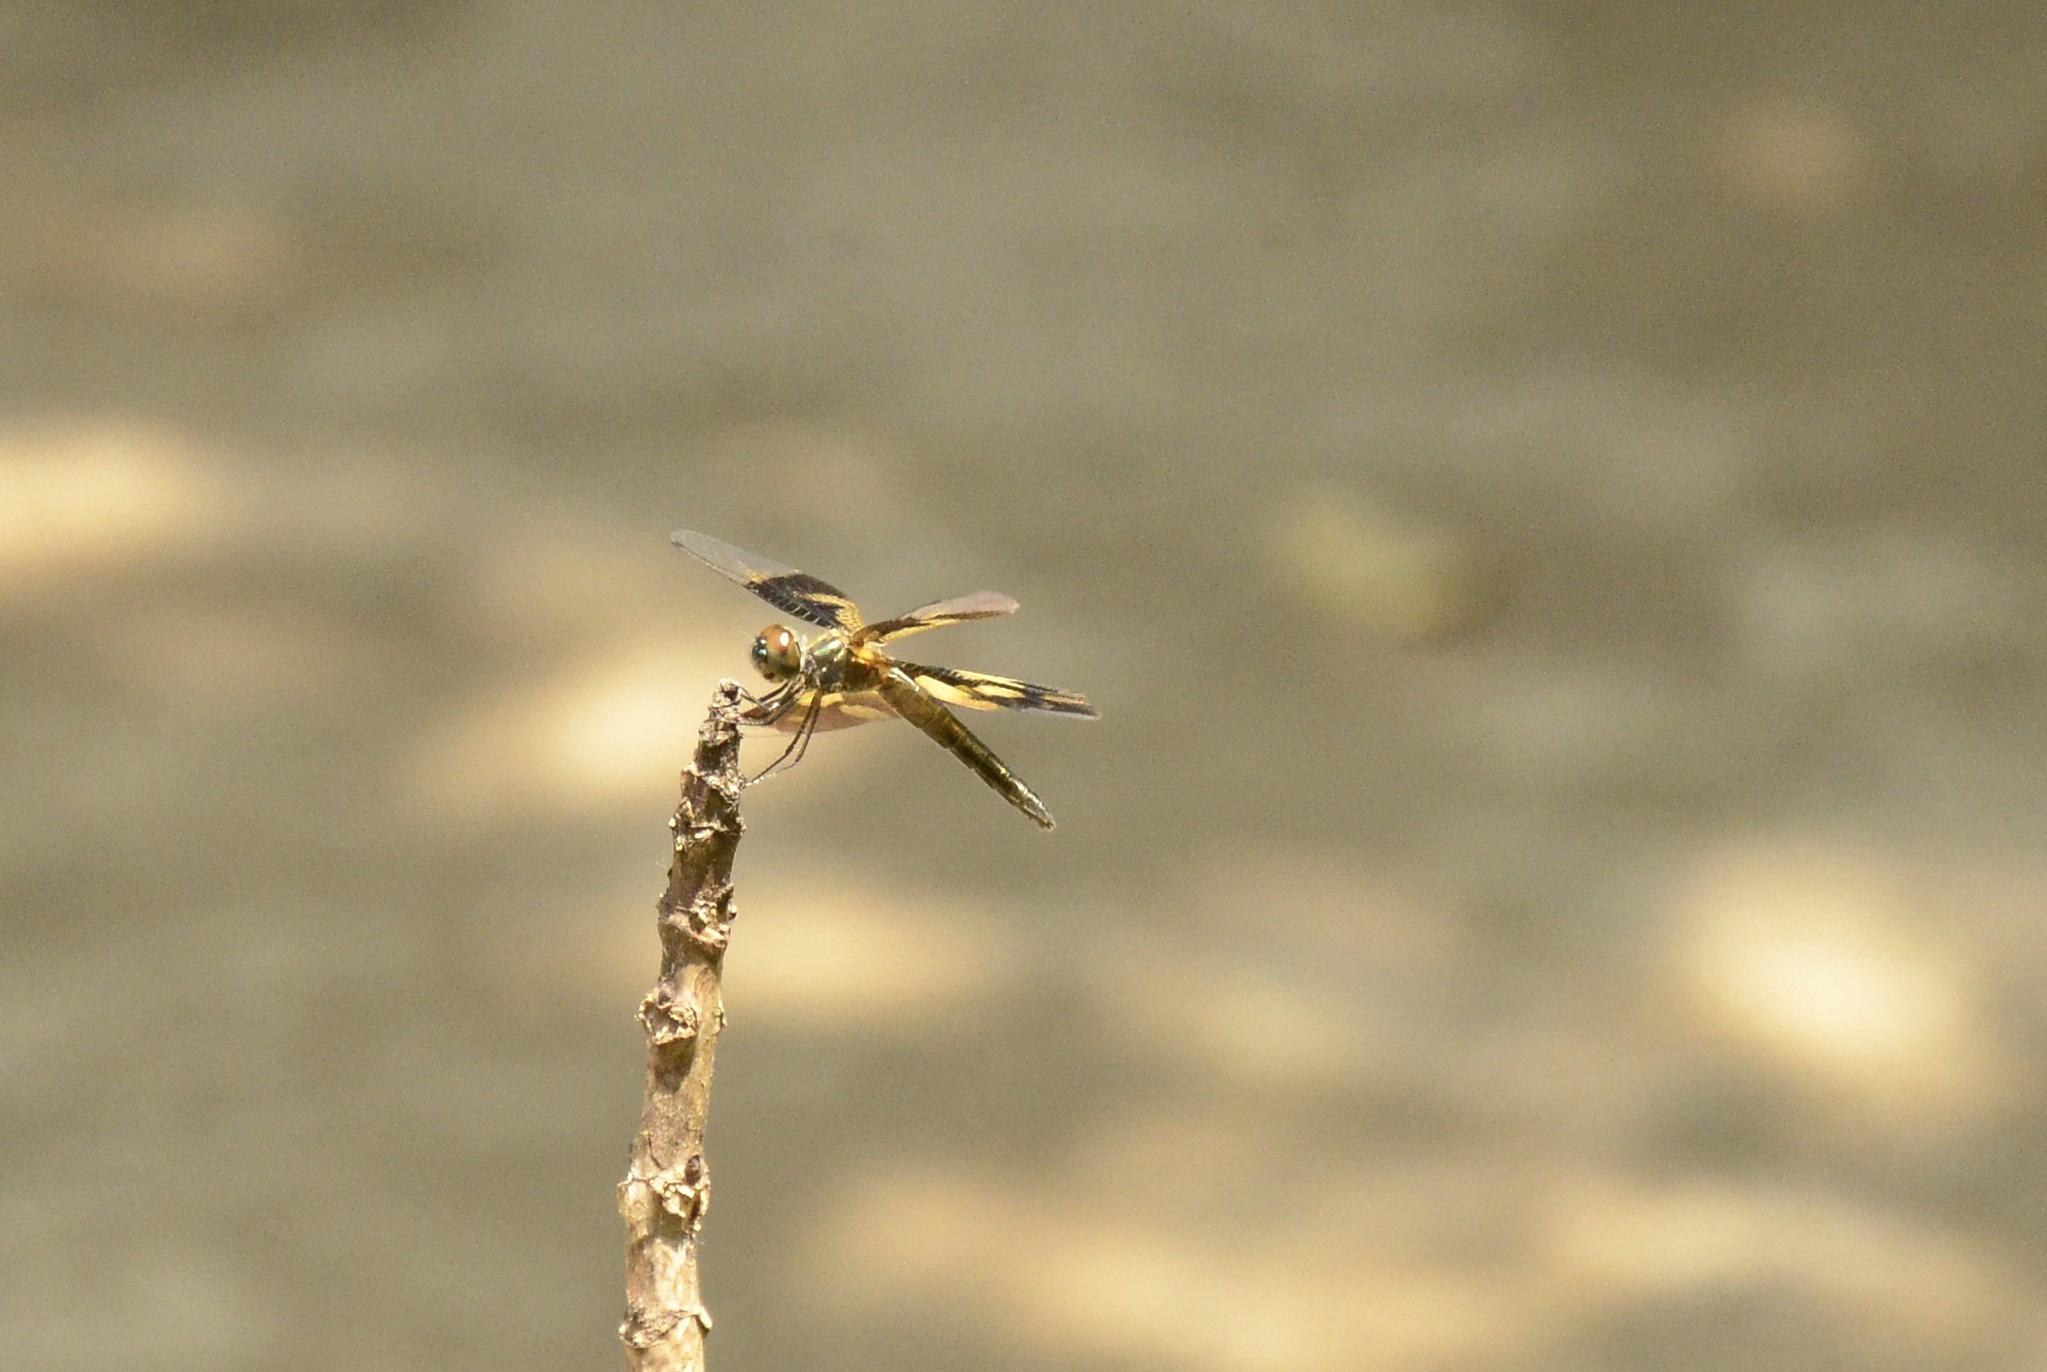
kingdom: Animalia
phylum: Arthropoda
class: Insecta
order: Odonata
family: Libellulidae
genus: Rhyothemis
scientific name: Rhyothemis variegata
